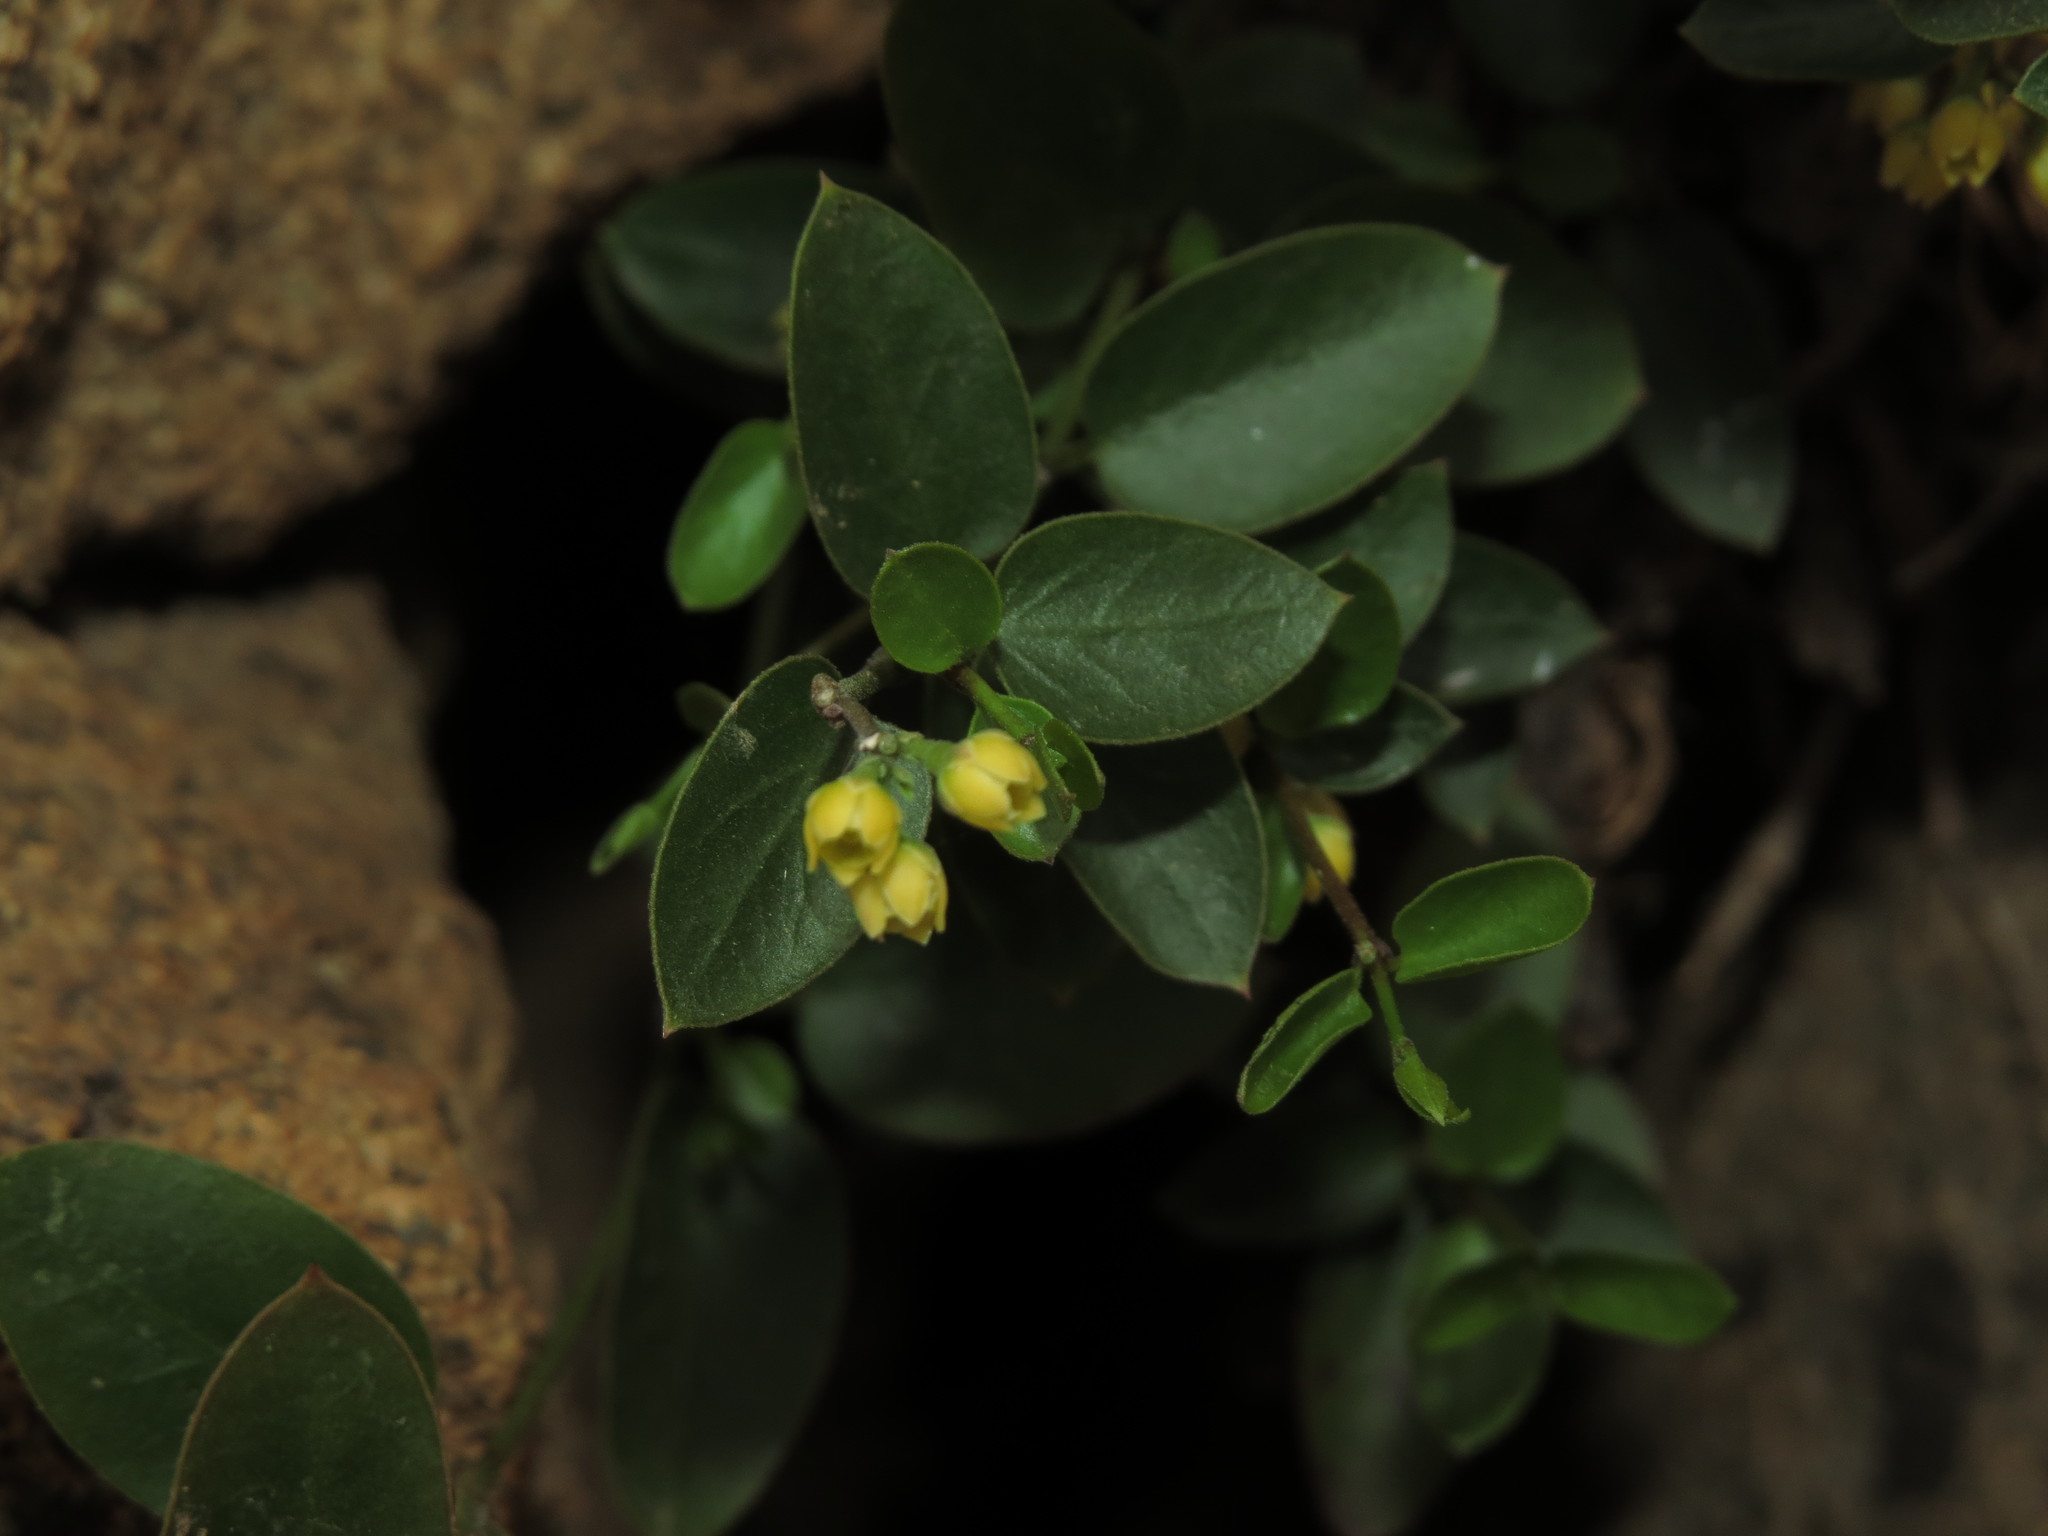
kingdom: Plantae
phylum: Tracheophyta
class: Magnoliopsida
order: Gentianales
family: Apocynaceae
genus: Diplolepis
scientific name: Diplolepis mucronata
